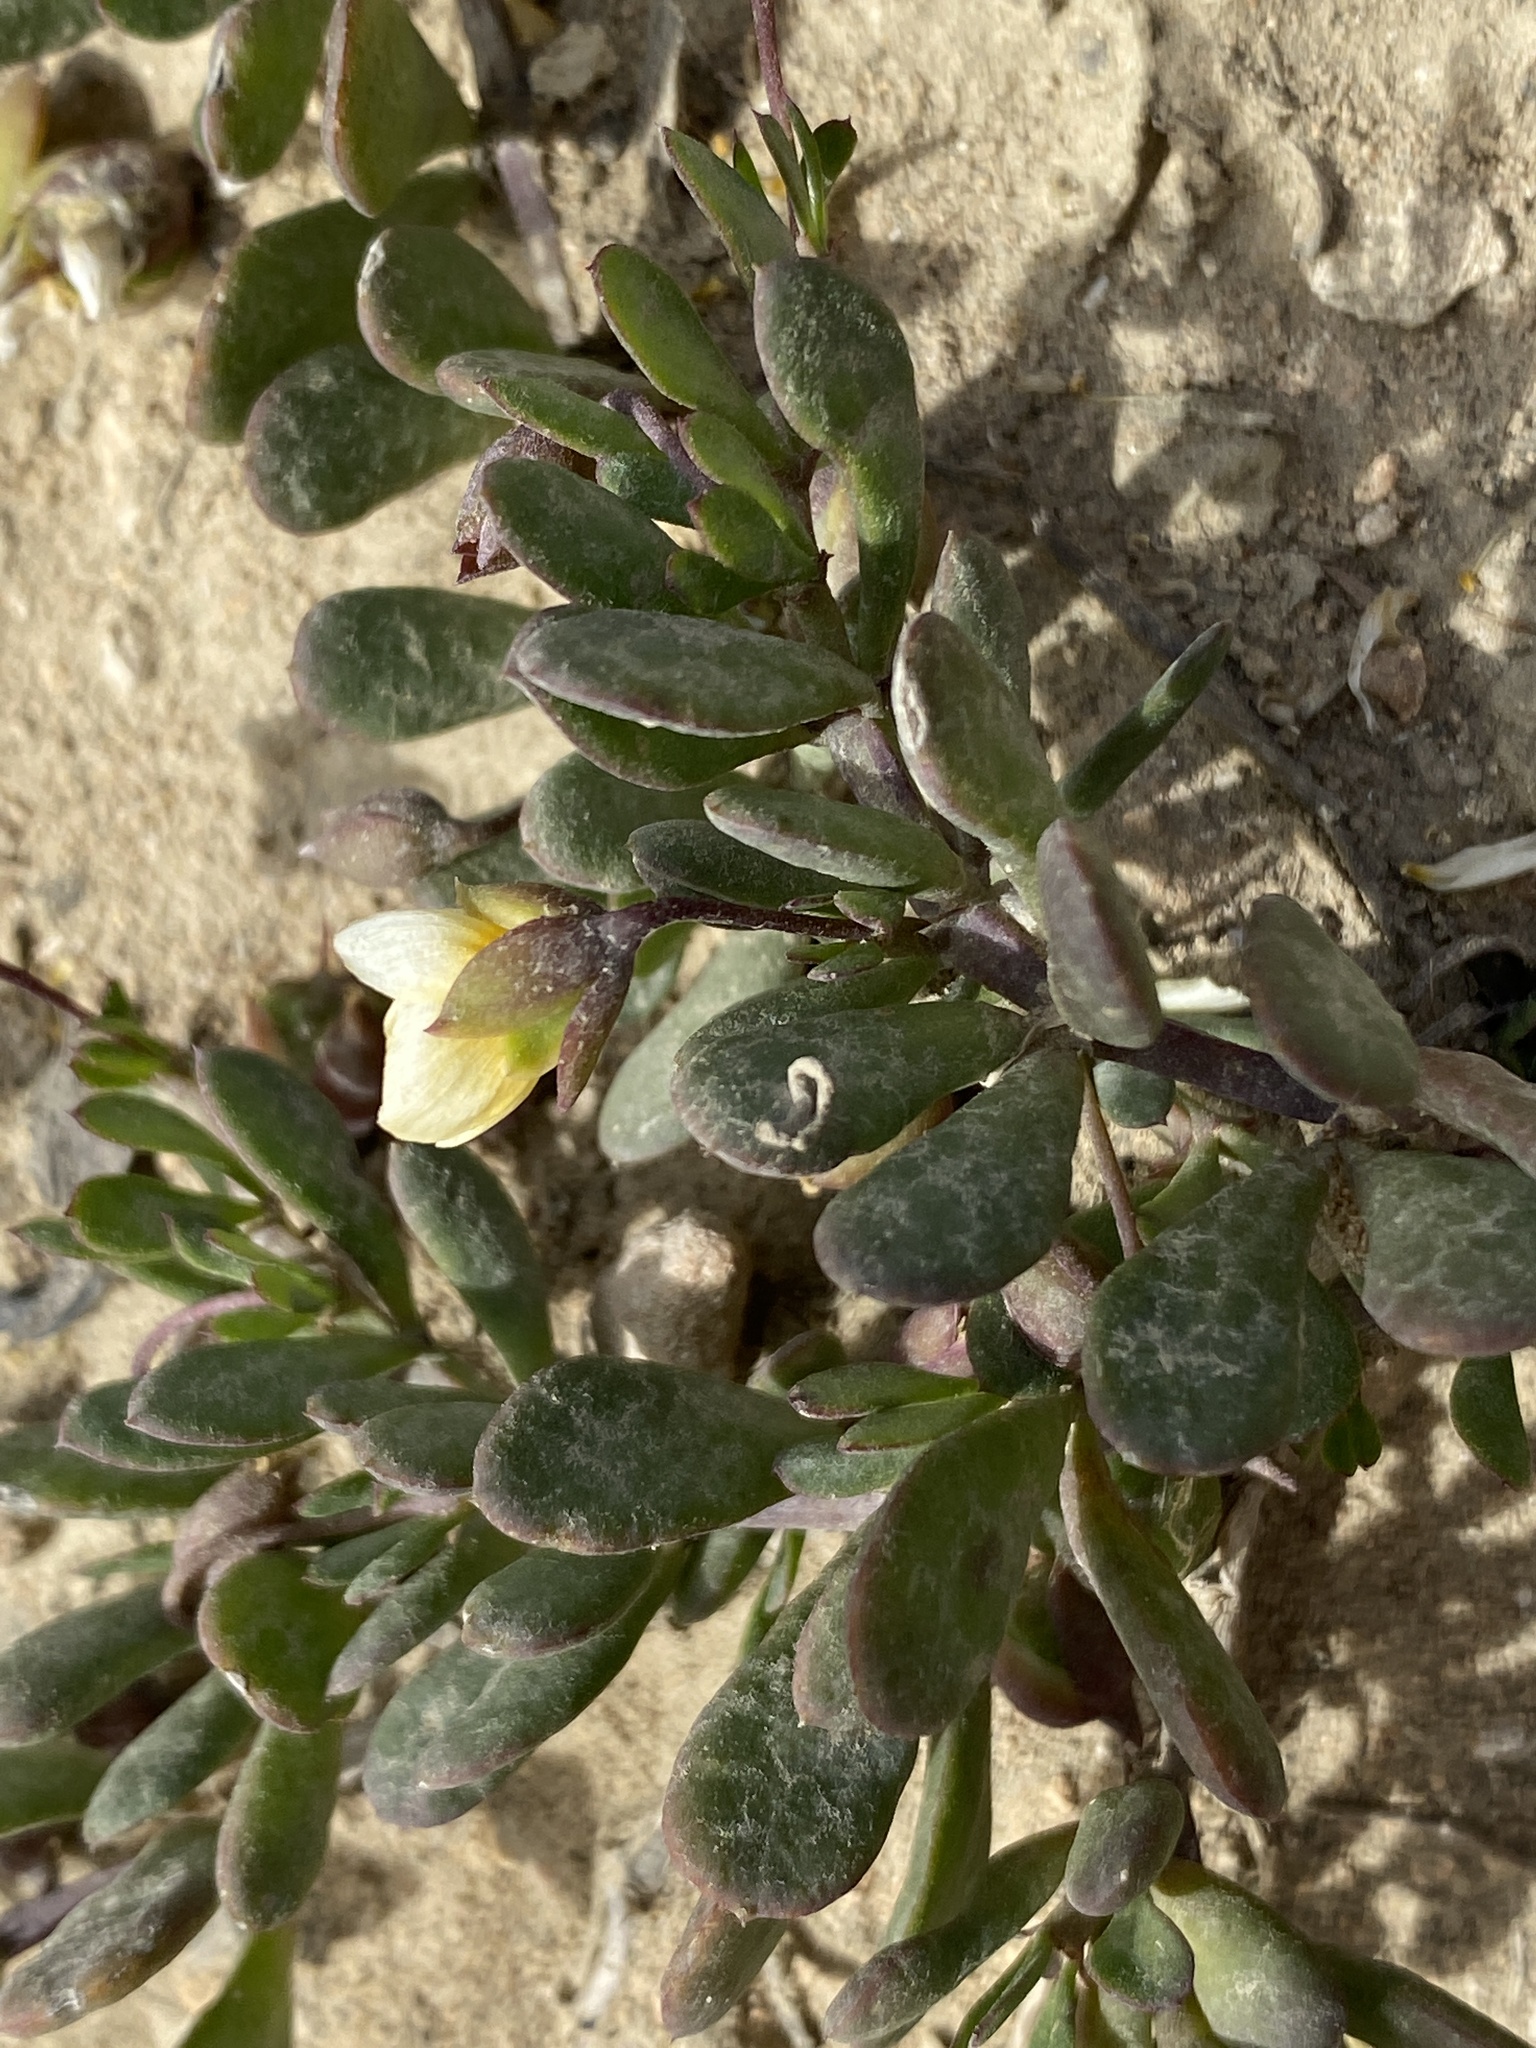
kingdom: Plantae
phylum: Tracheophyta
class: Magnoliopsida
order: Zygophyllales
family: Zygophyllaceae
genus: Roepera
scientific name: Roepera flexuosa
